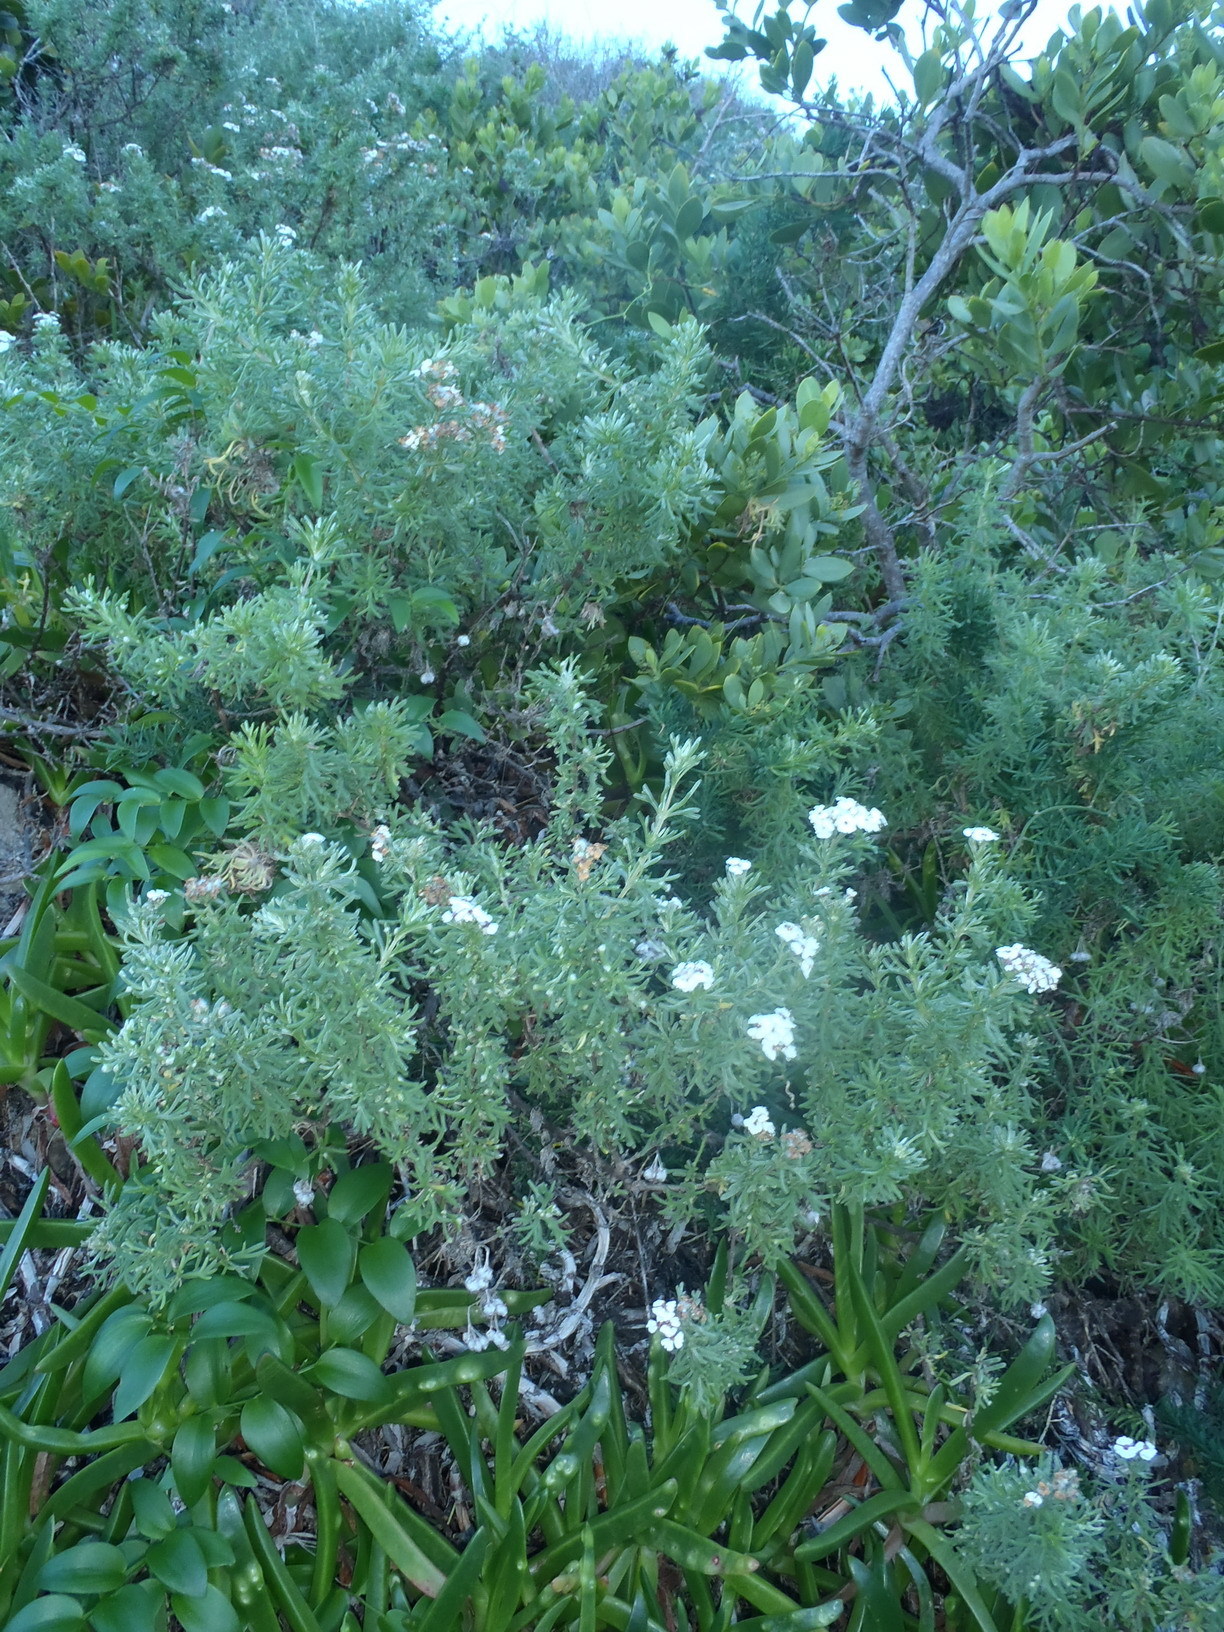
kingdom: Plantae
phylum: Tracheophyta
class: Magnoliopsida
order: Asterales
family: Asteraceae
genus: Eriocephalus
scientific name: Eriocephalus africanus
